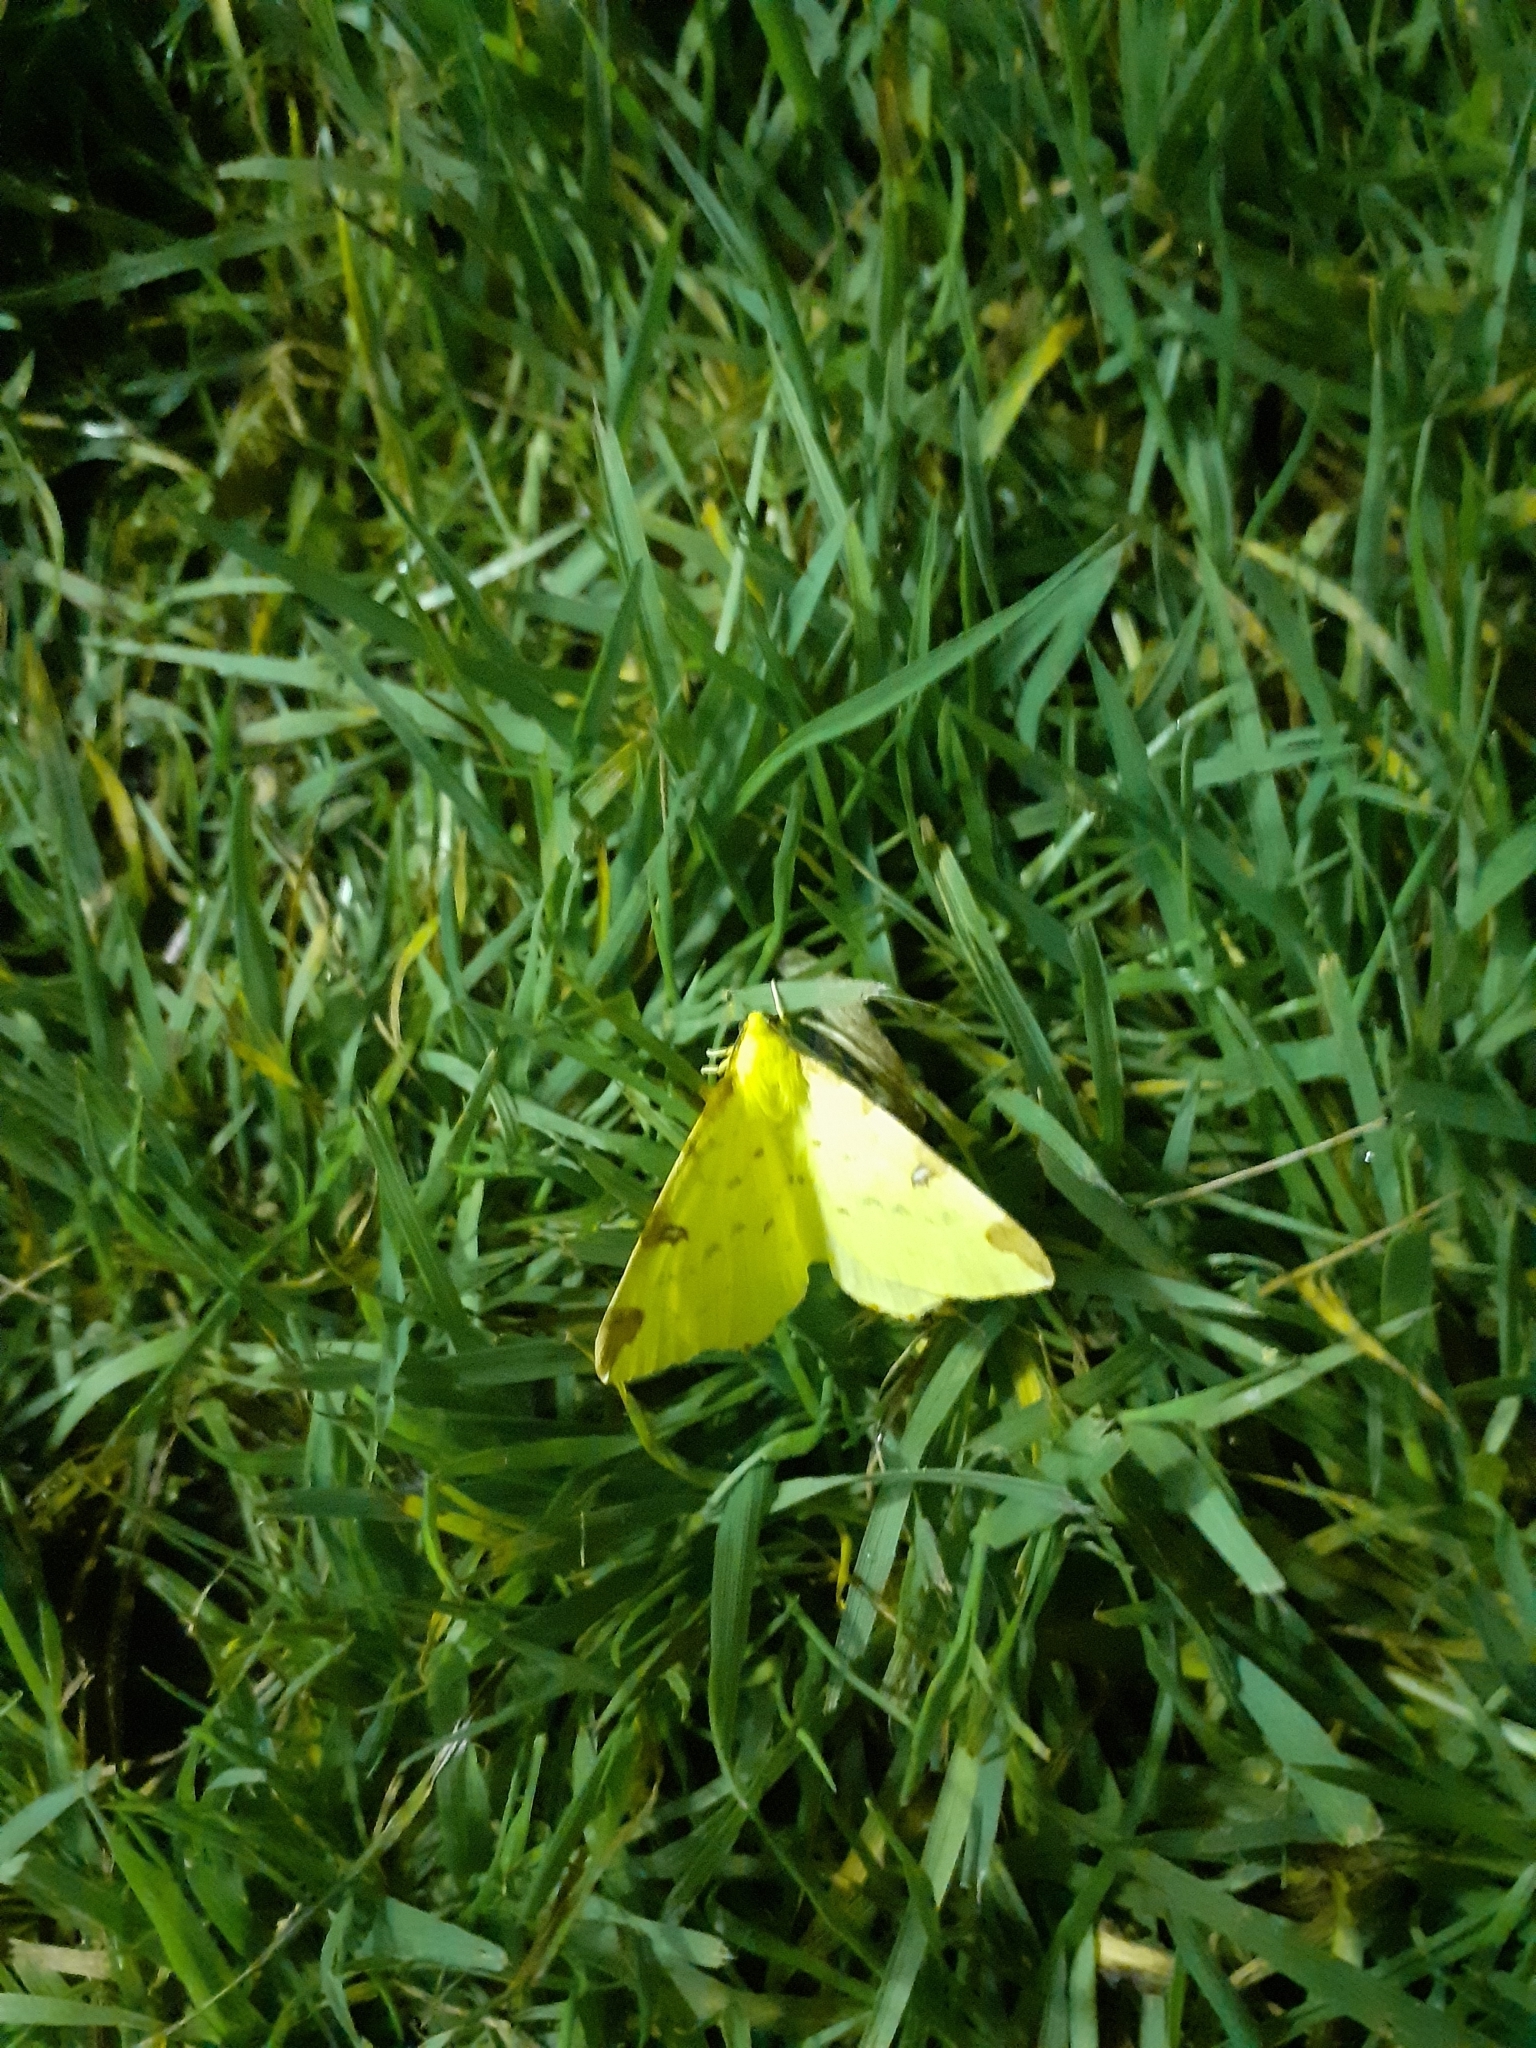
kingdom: Animalia
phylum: Arthropoda
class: Insecta
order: Lepidoptera
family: Geometridae
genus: Opisthograptis
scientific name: Opisthograptis luteolata
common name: Brimstone moth
